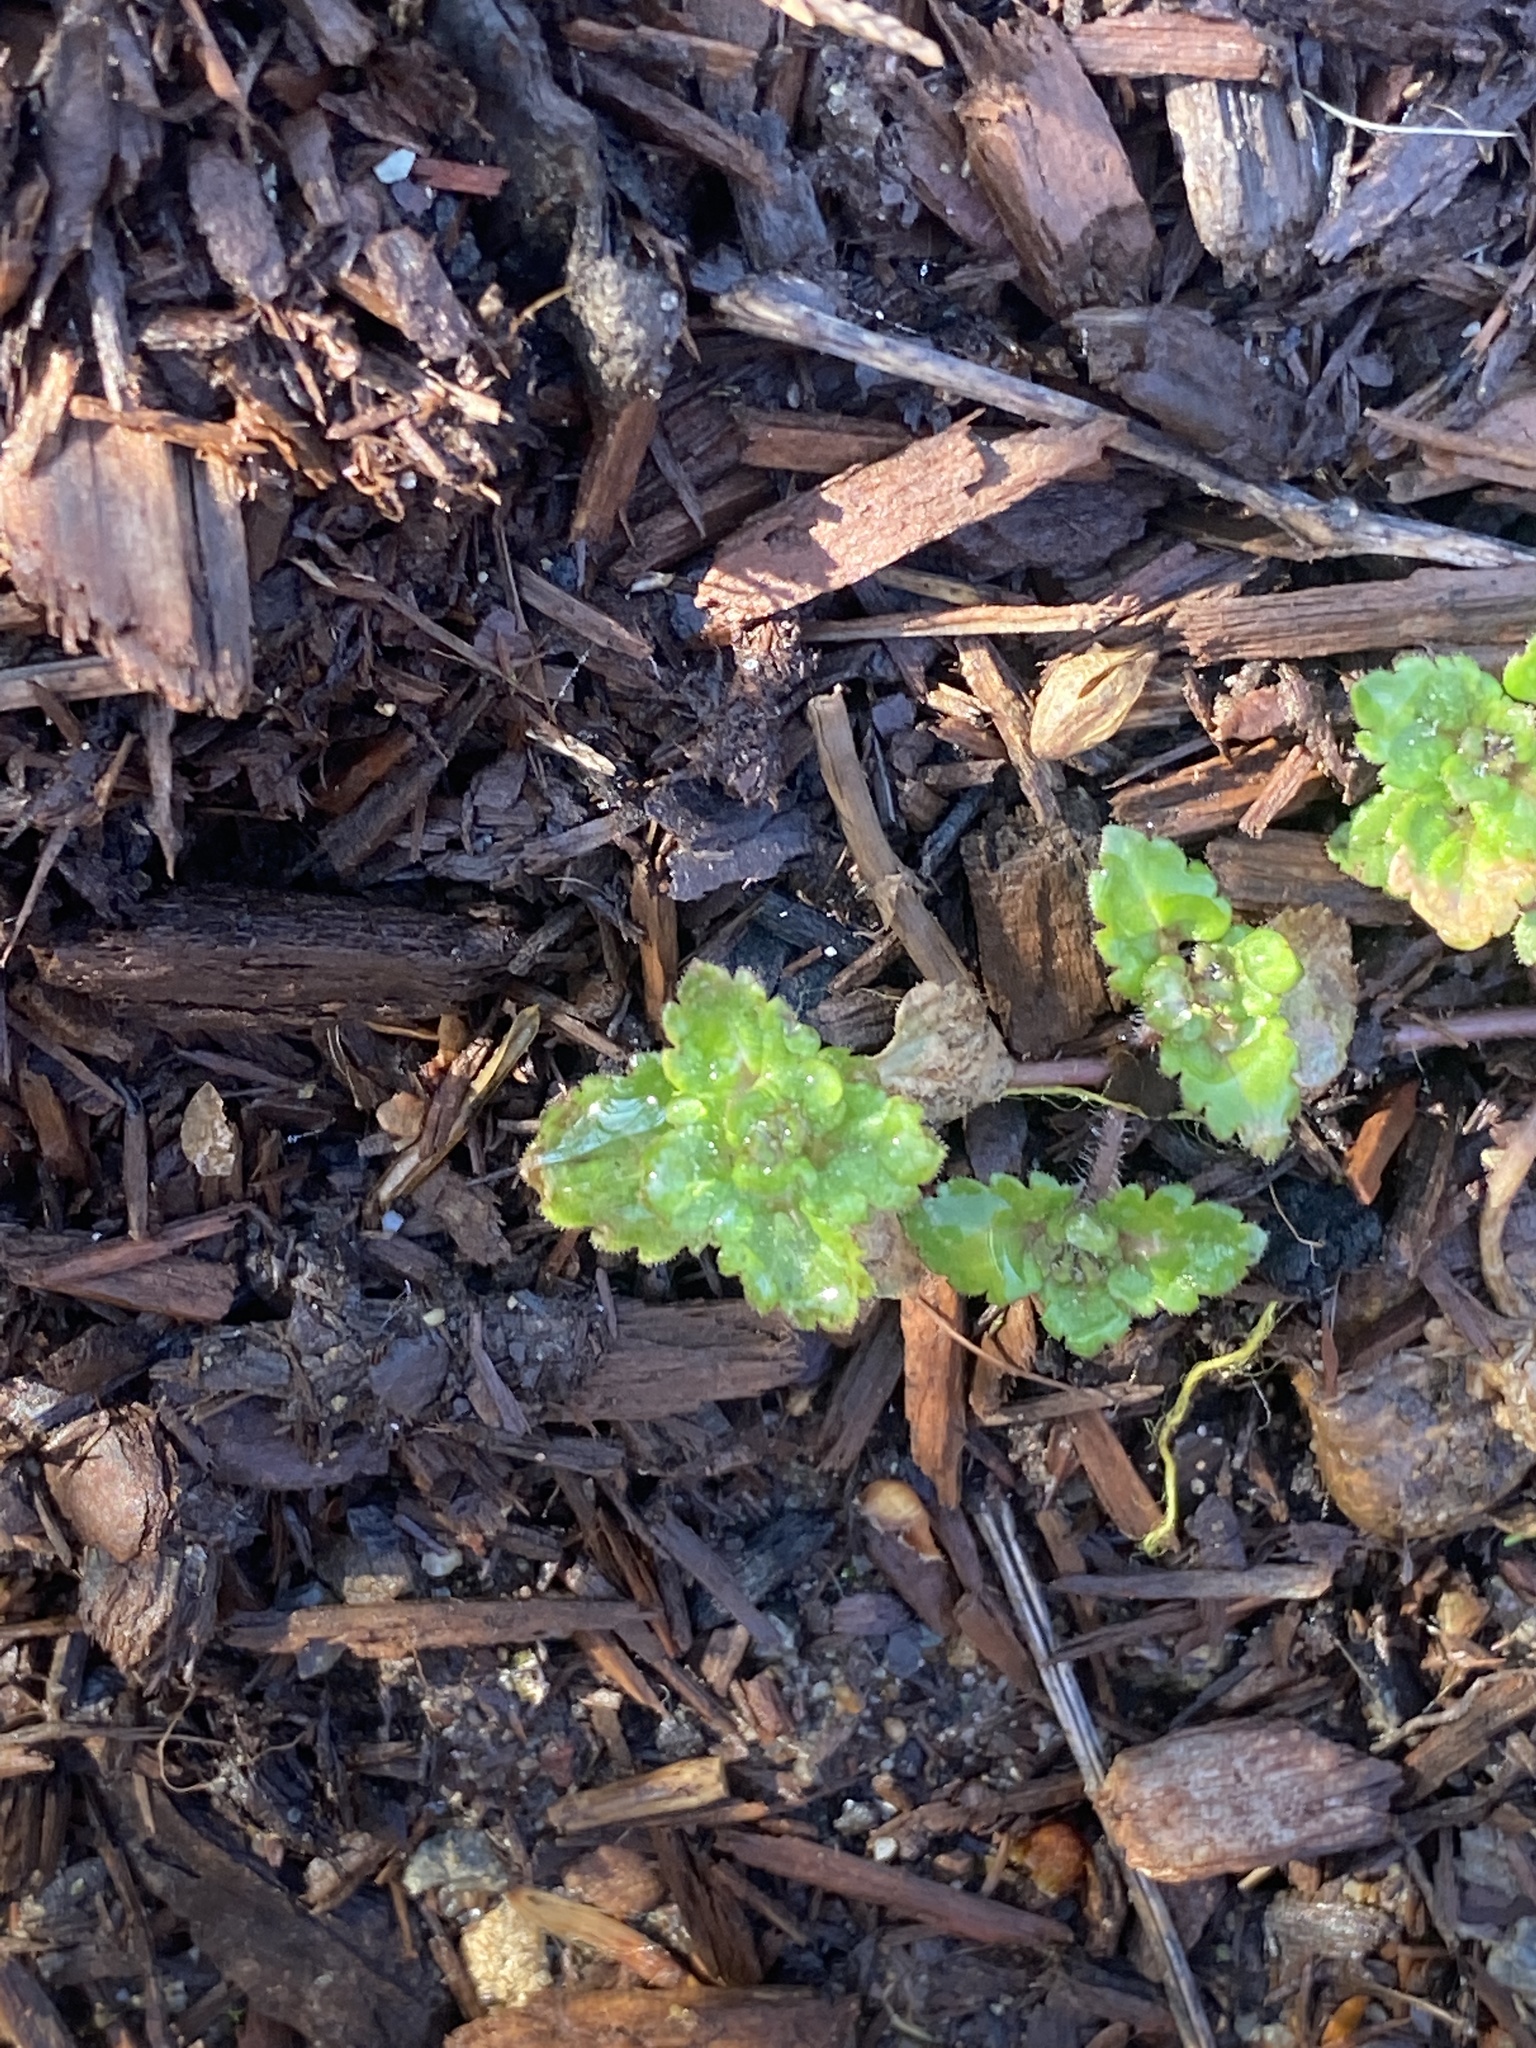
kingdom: Plantae
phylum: Tracheophyta
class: Magnoliopsida
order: Lamiales
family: Plantaginaceae
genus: Veronica
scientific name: Veronica persica
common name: Common field-speedwell
